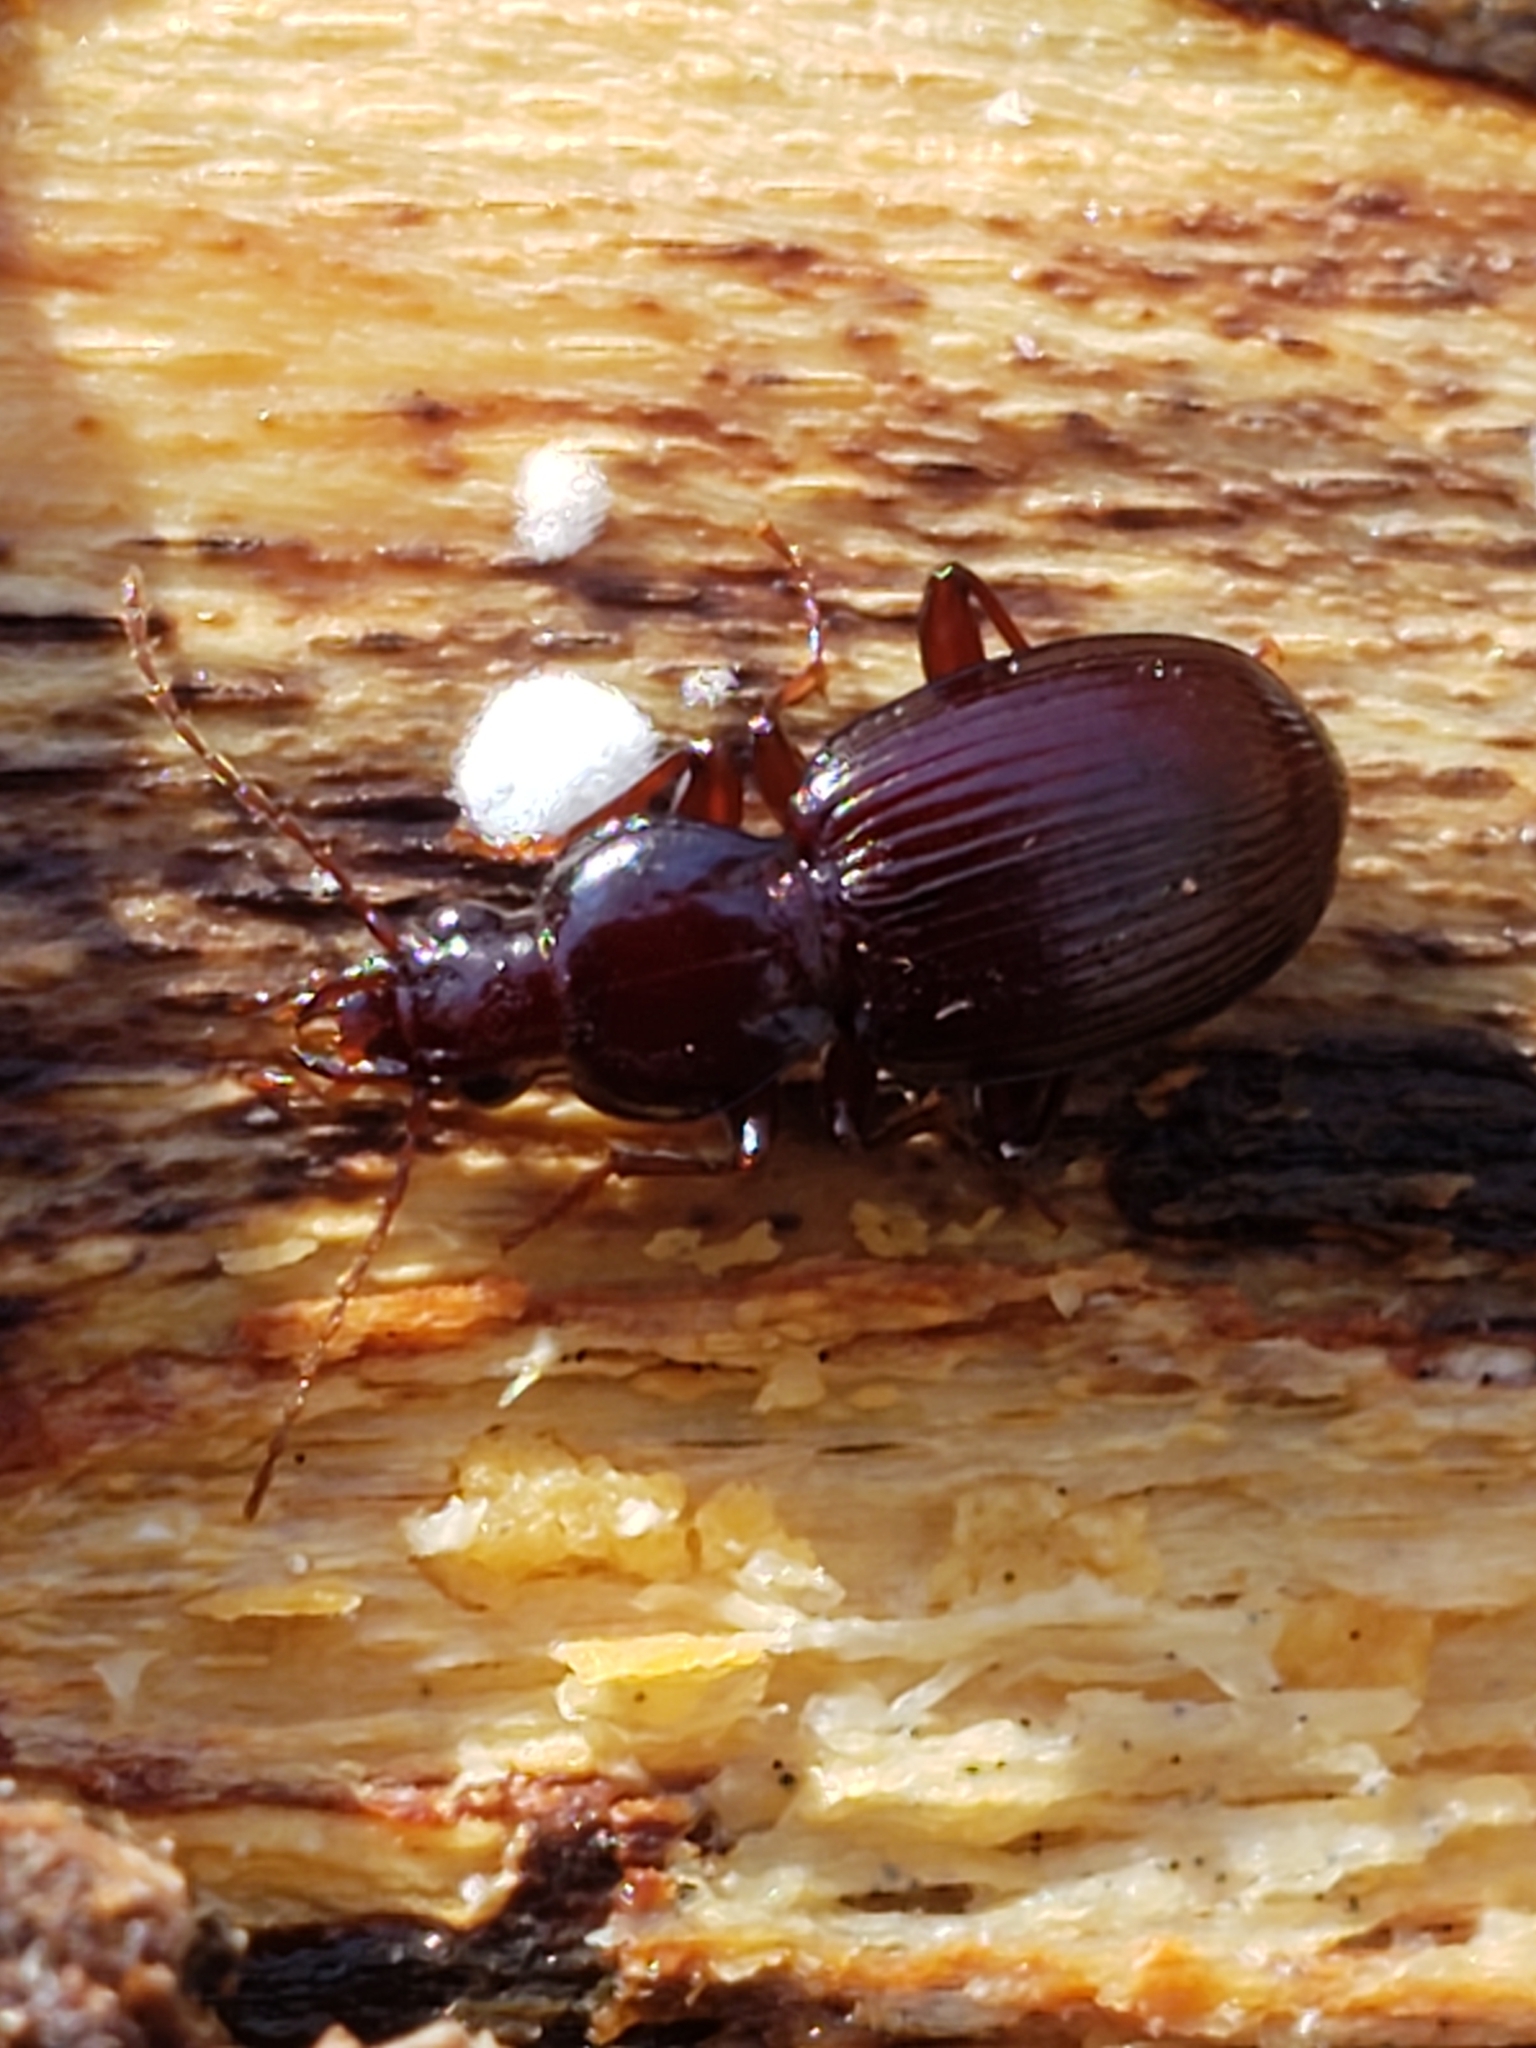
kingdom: Animalia
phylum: Arthropoda
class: Insecta
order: Coleoptera
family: Carabidae
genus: Gastrellarius
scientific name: Gastrellarius honestus
